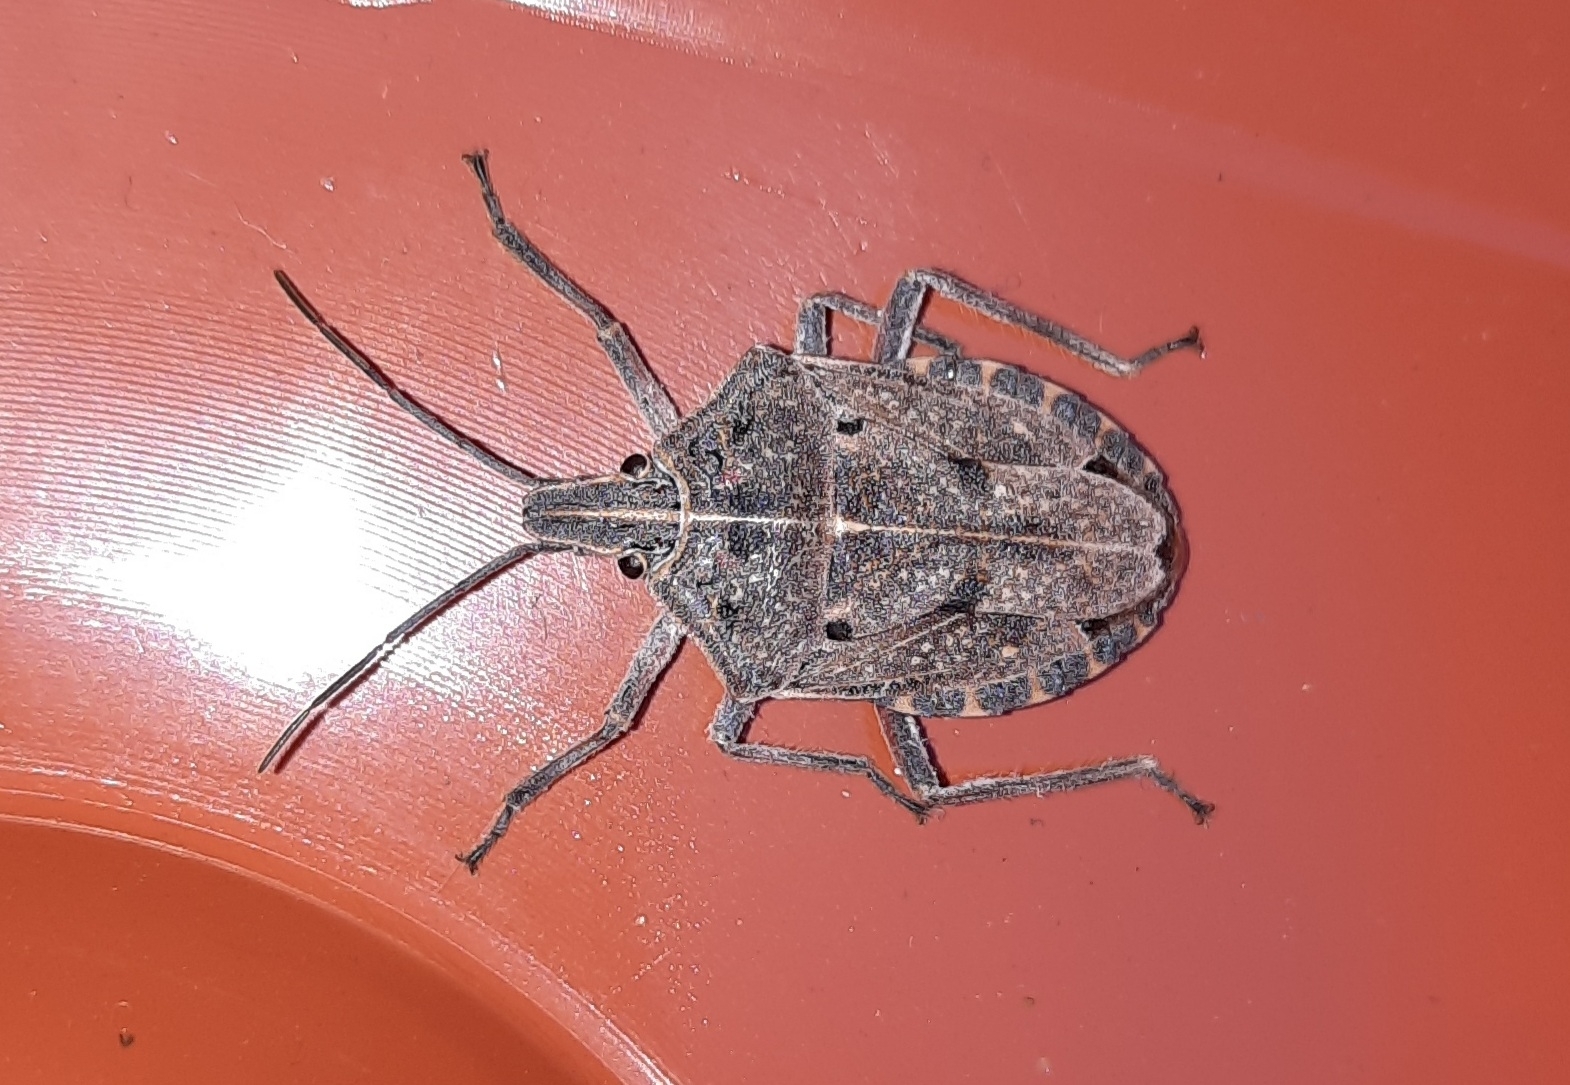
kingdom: Animalia
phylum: Arthropoda
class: Insecta
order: Hemiptera
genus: Peltasticus
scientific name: Peltasticus
